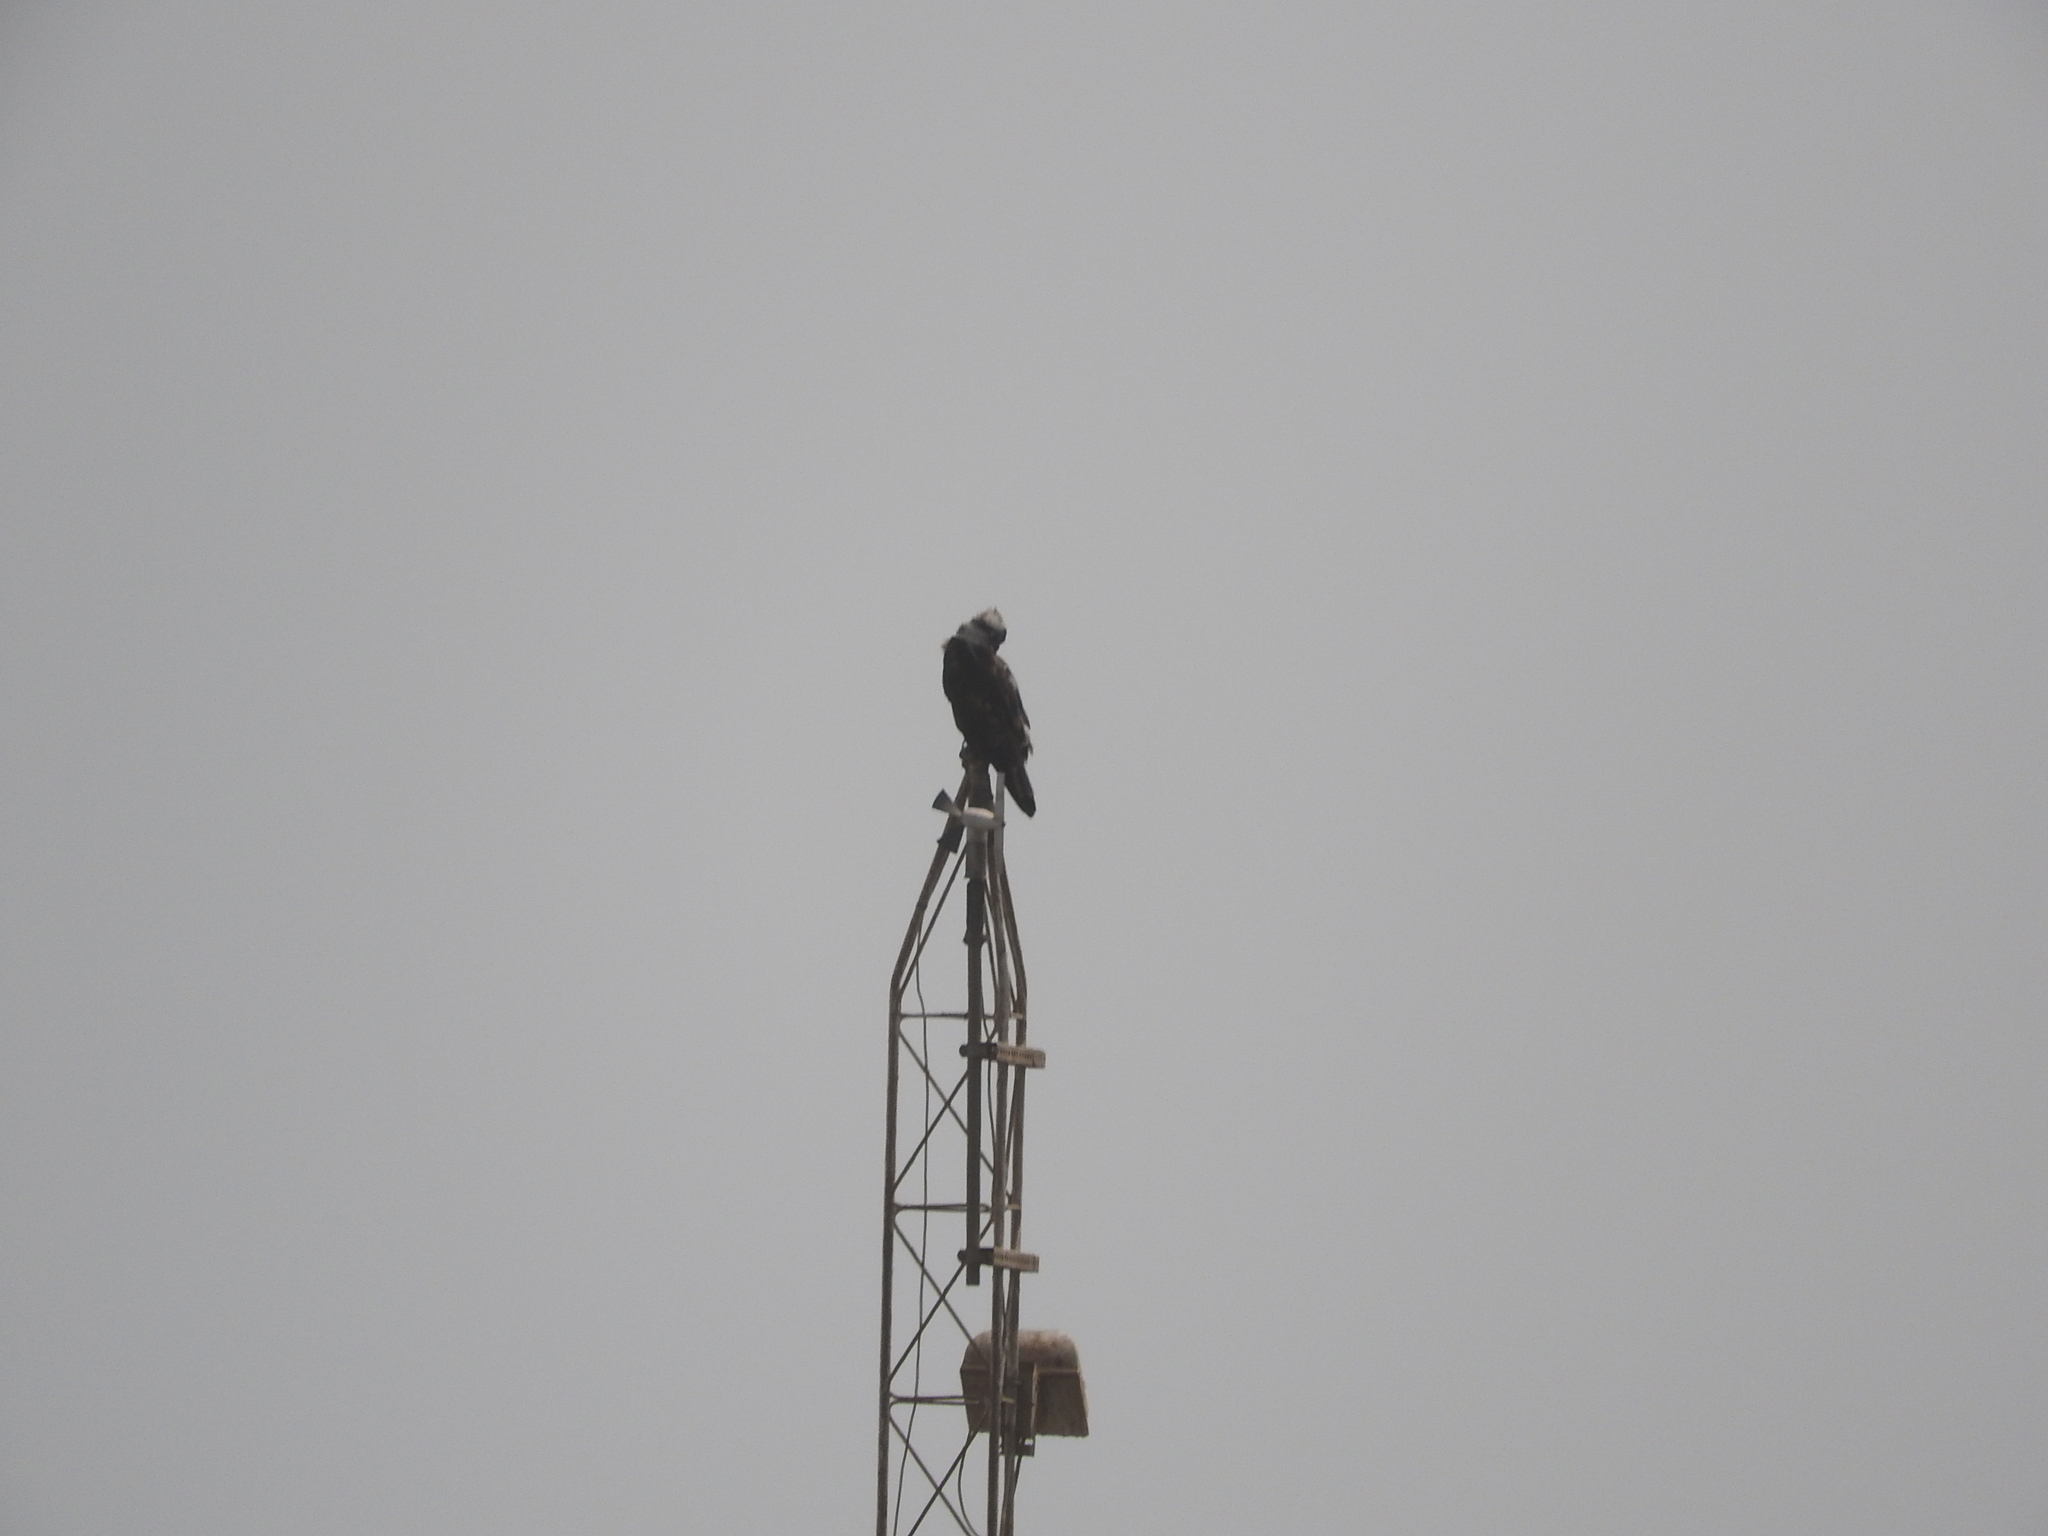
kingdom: Animalia
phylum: Chordata
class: Aves
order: Accipitriformes
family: Pandionidae
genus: Pandion
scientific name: Pandion haliaetus
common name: Osprey
